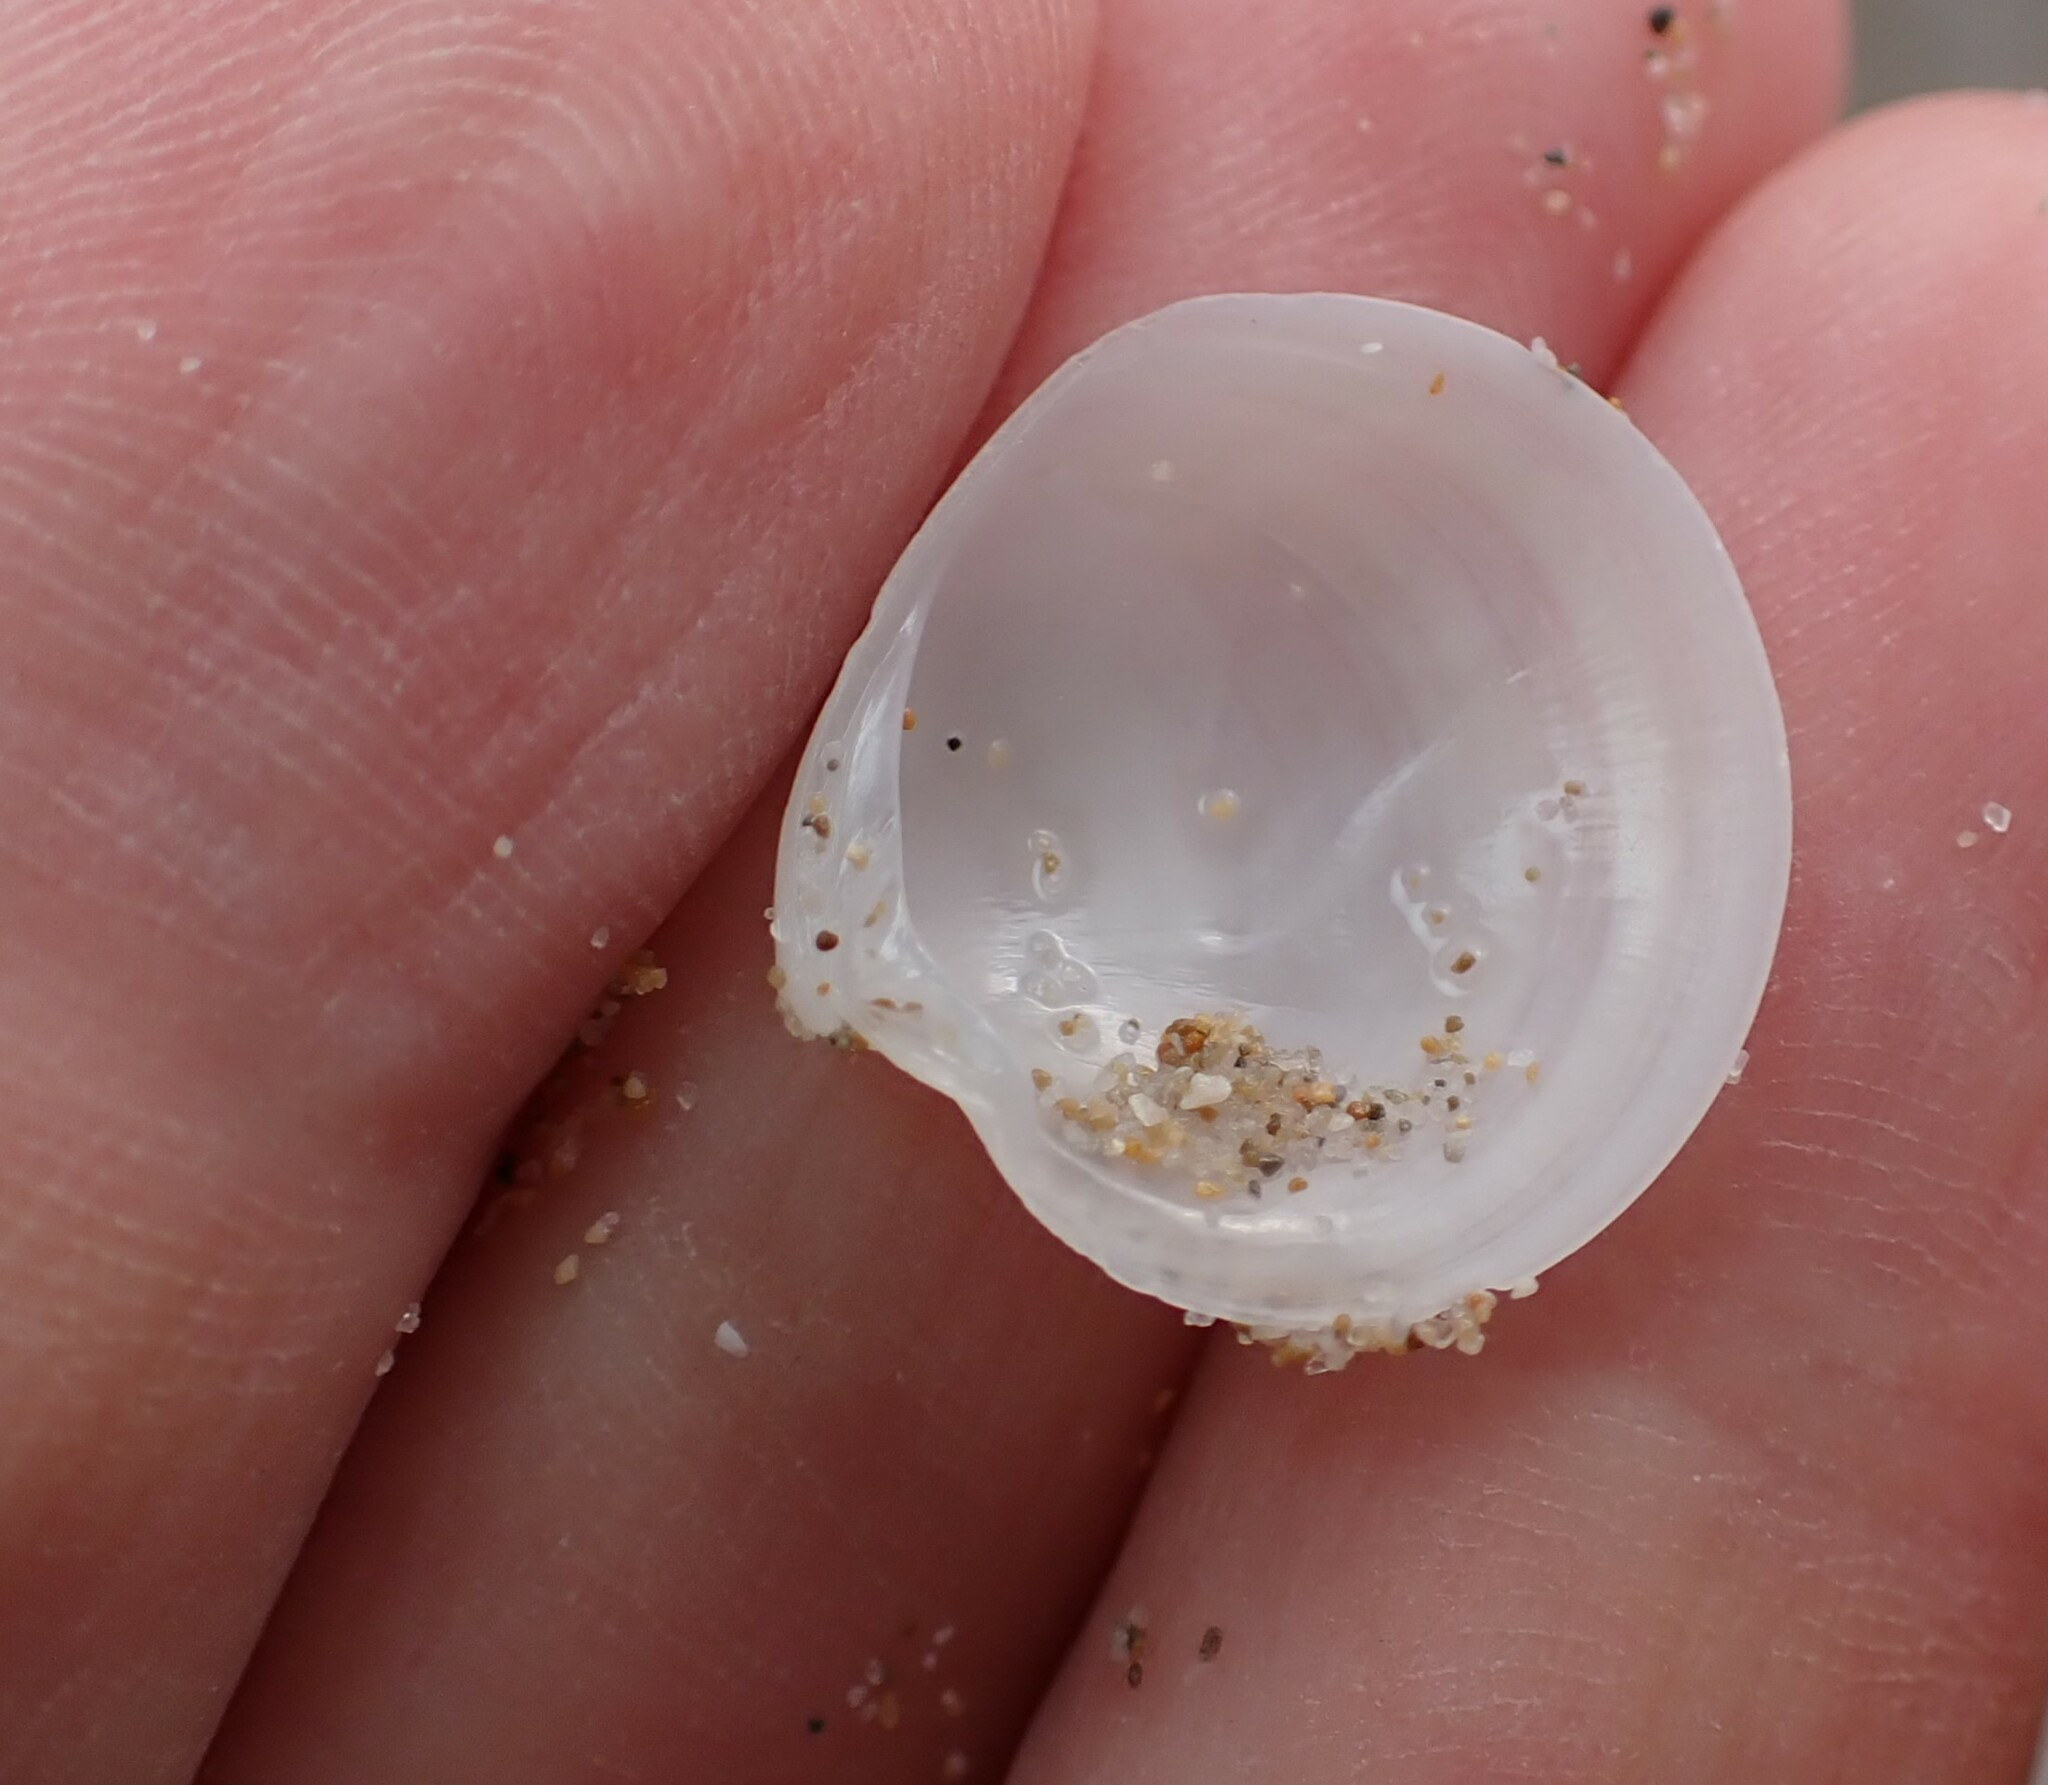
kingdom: Animalia
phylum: Mollusca
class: Bivalvia
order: Venerida
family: Veneridae
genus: Dosinia
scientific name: Dosinia lupinus
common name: Smooth artemis
